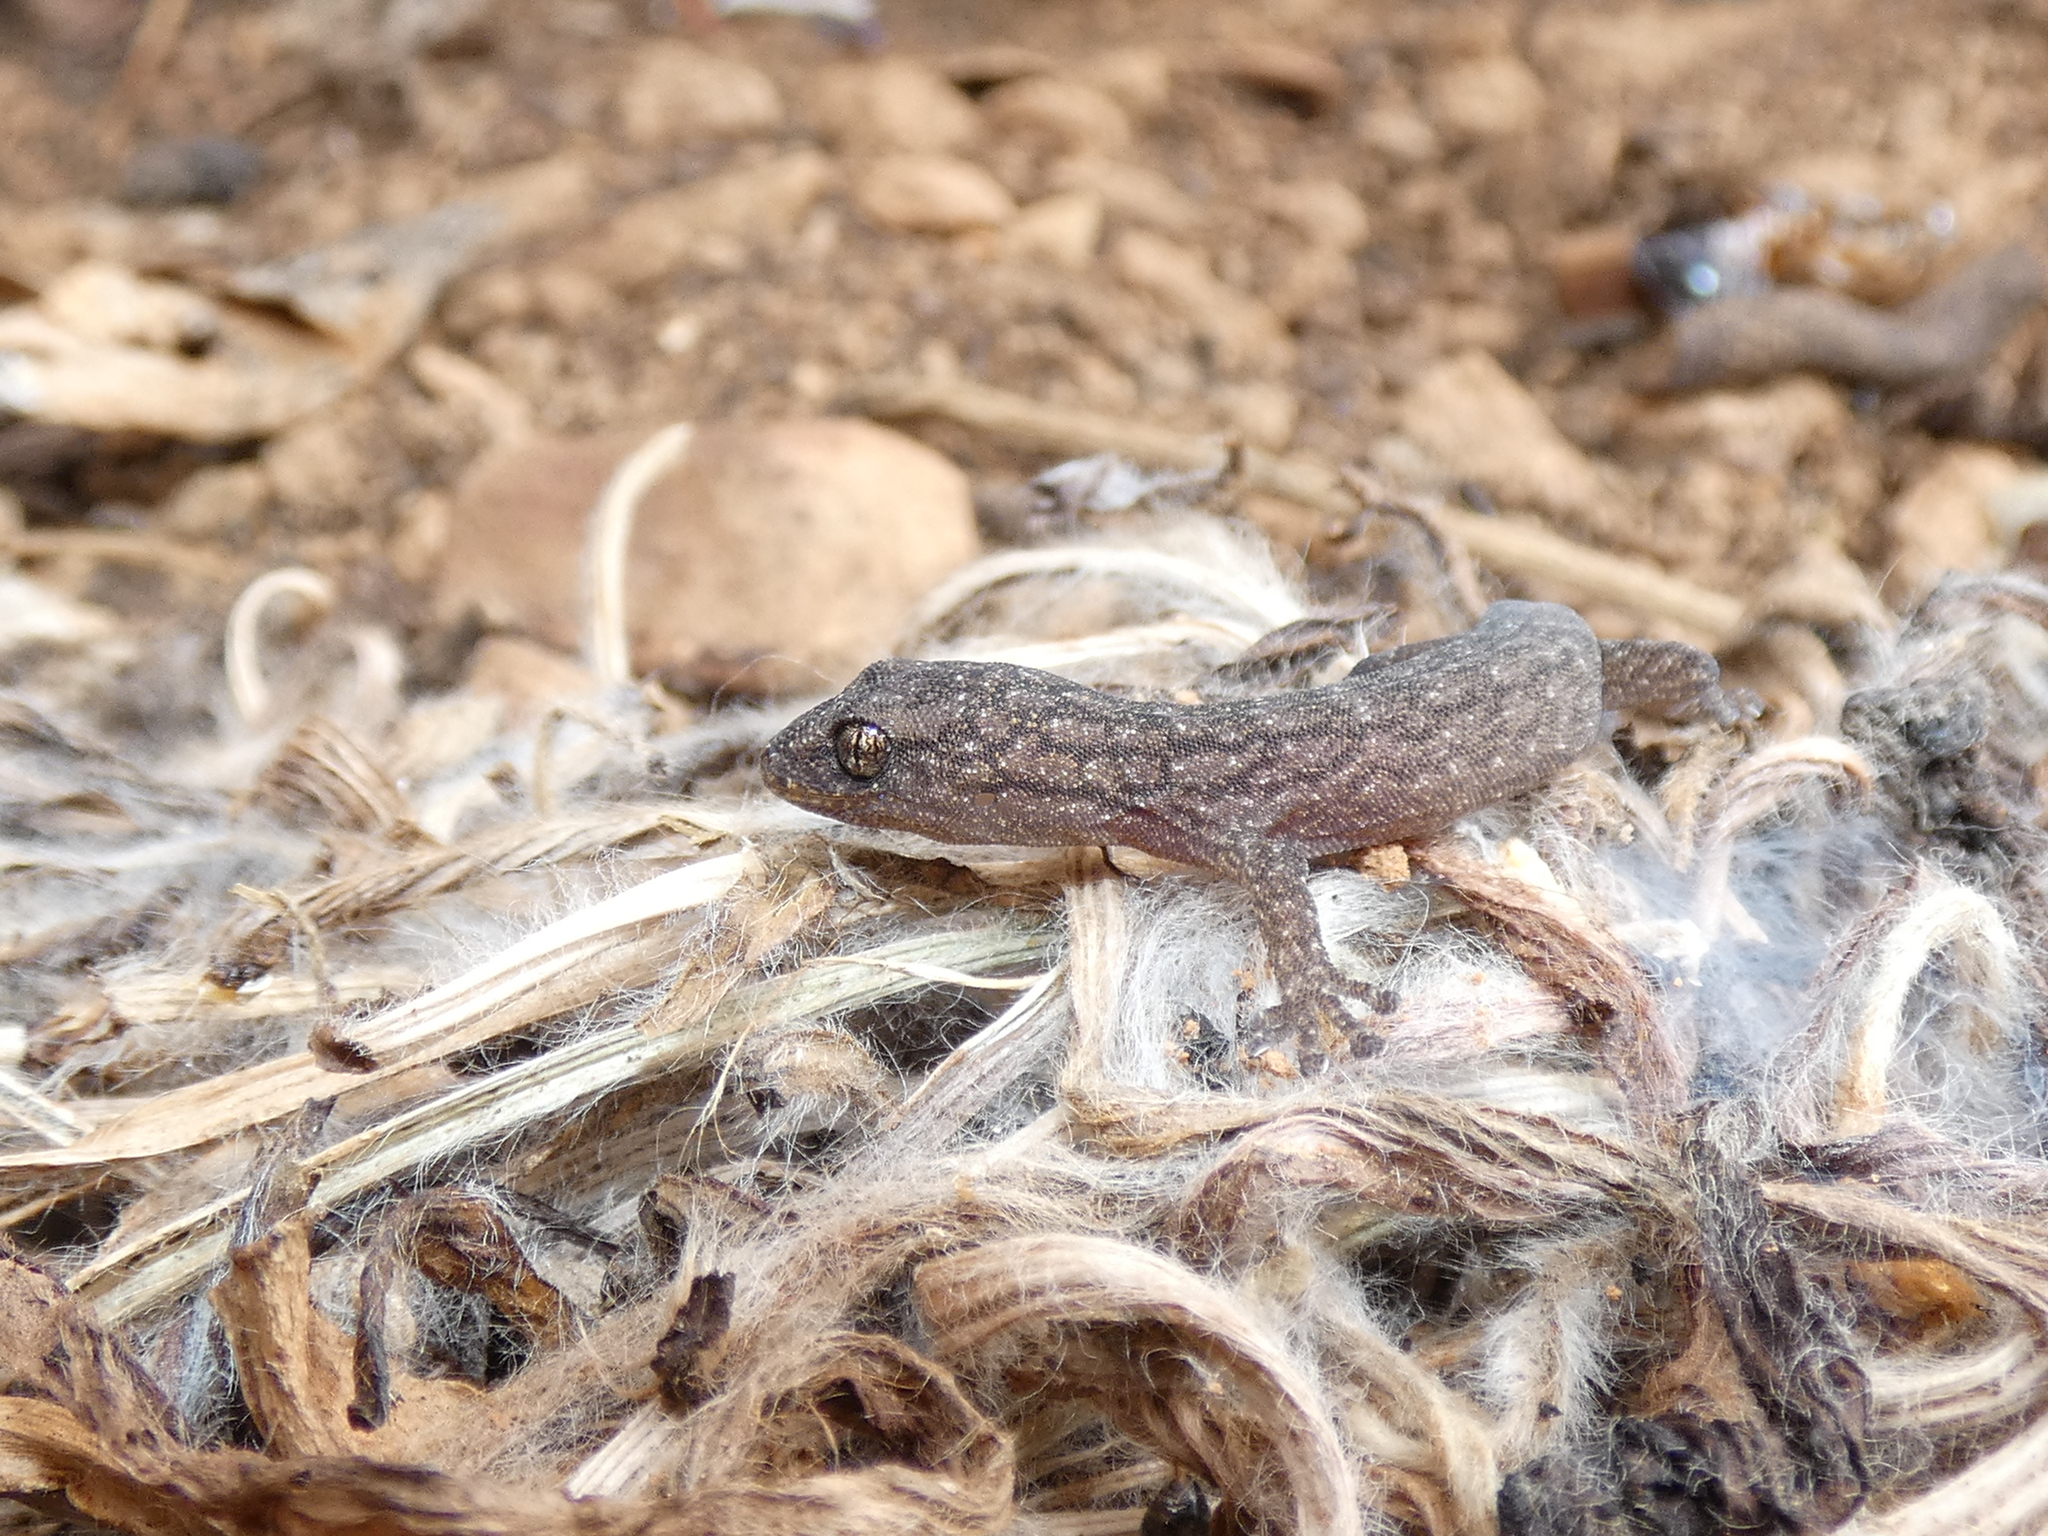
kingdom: Animalia
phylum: Chordata
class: Squamata
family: Gekkonidae
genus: Christinus
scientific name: Christinus marmoratus
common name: Marbled gecko
